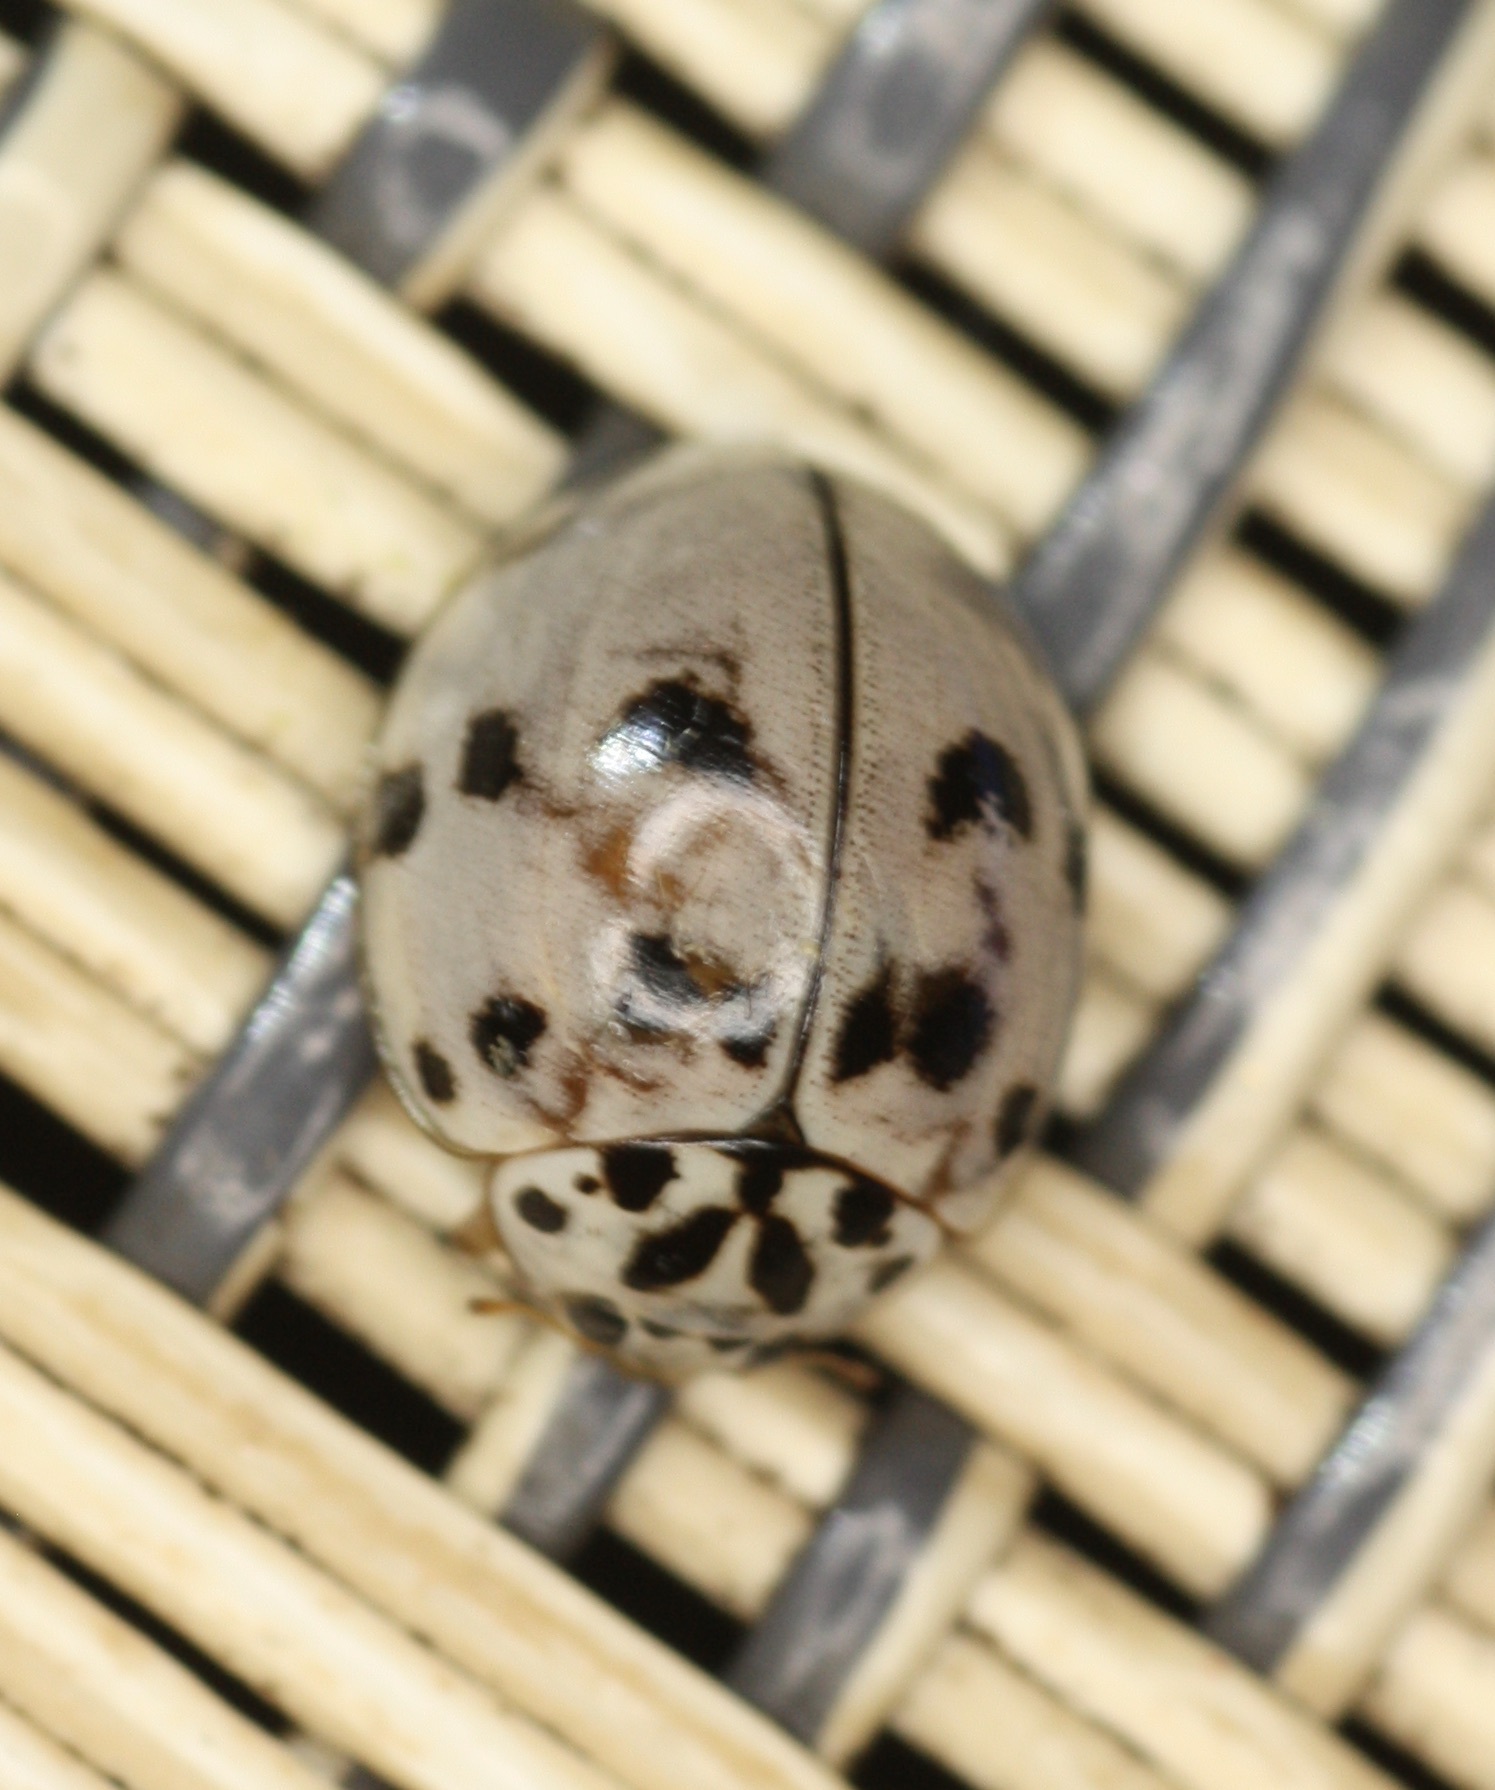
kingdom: Animalia
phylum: Arthropoda
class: Insecta
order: Coleoptera
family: Coccinellidae
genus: Olla
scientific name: Olla v-nigrum
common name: Ashy gray lady beetle
